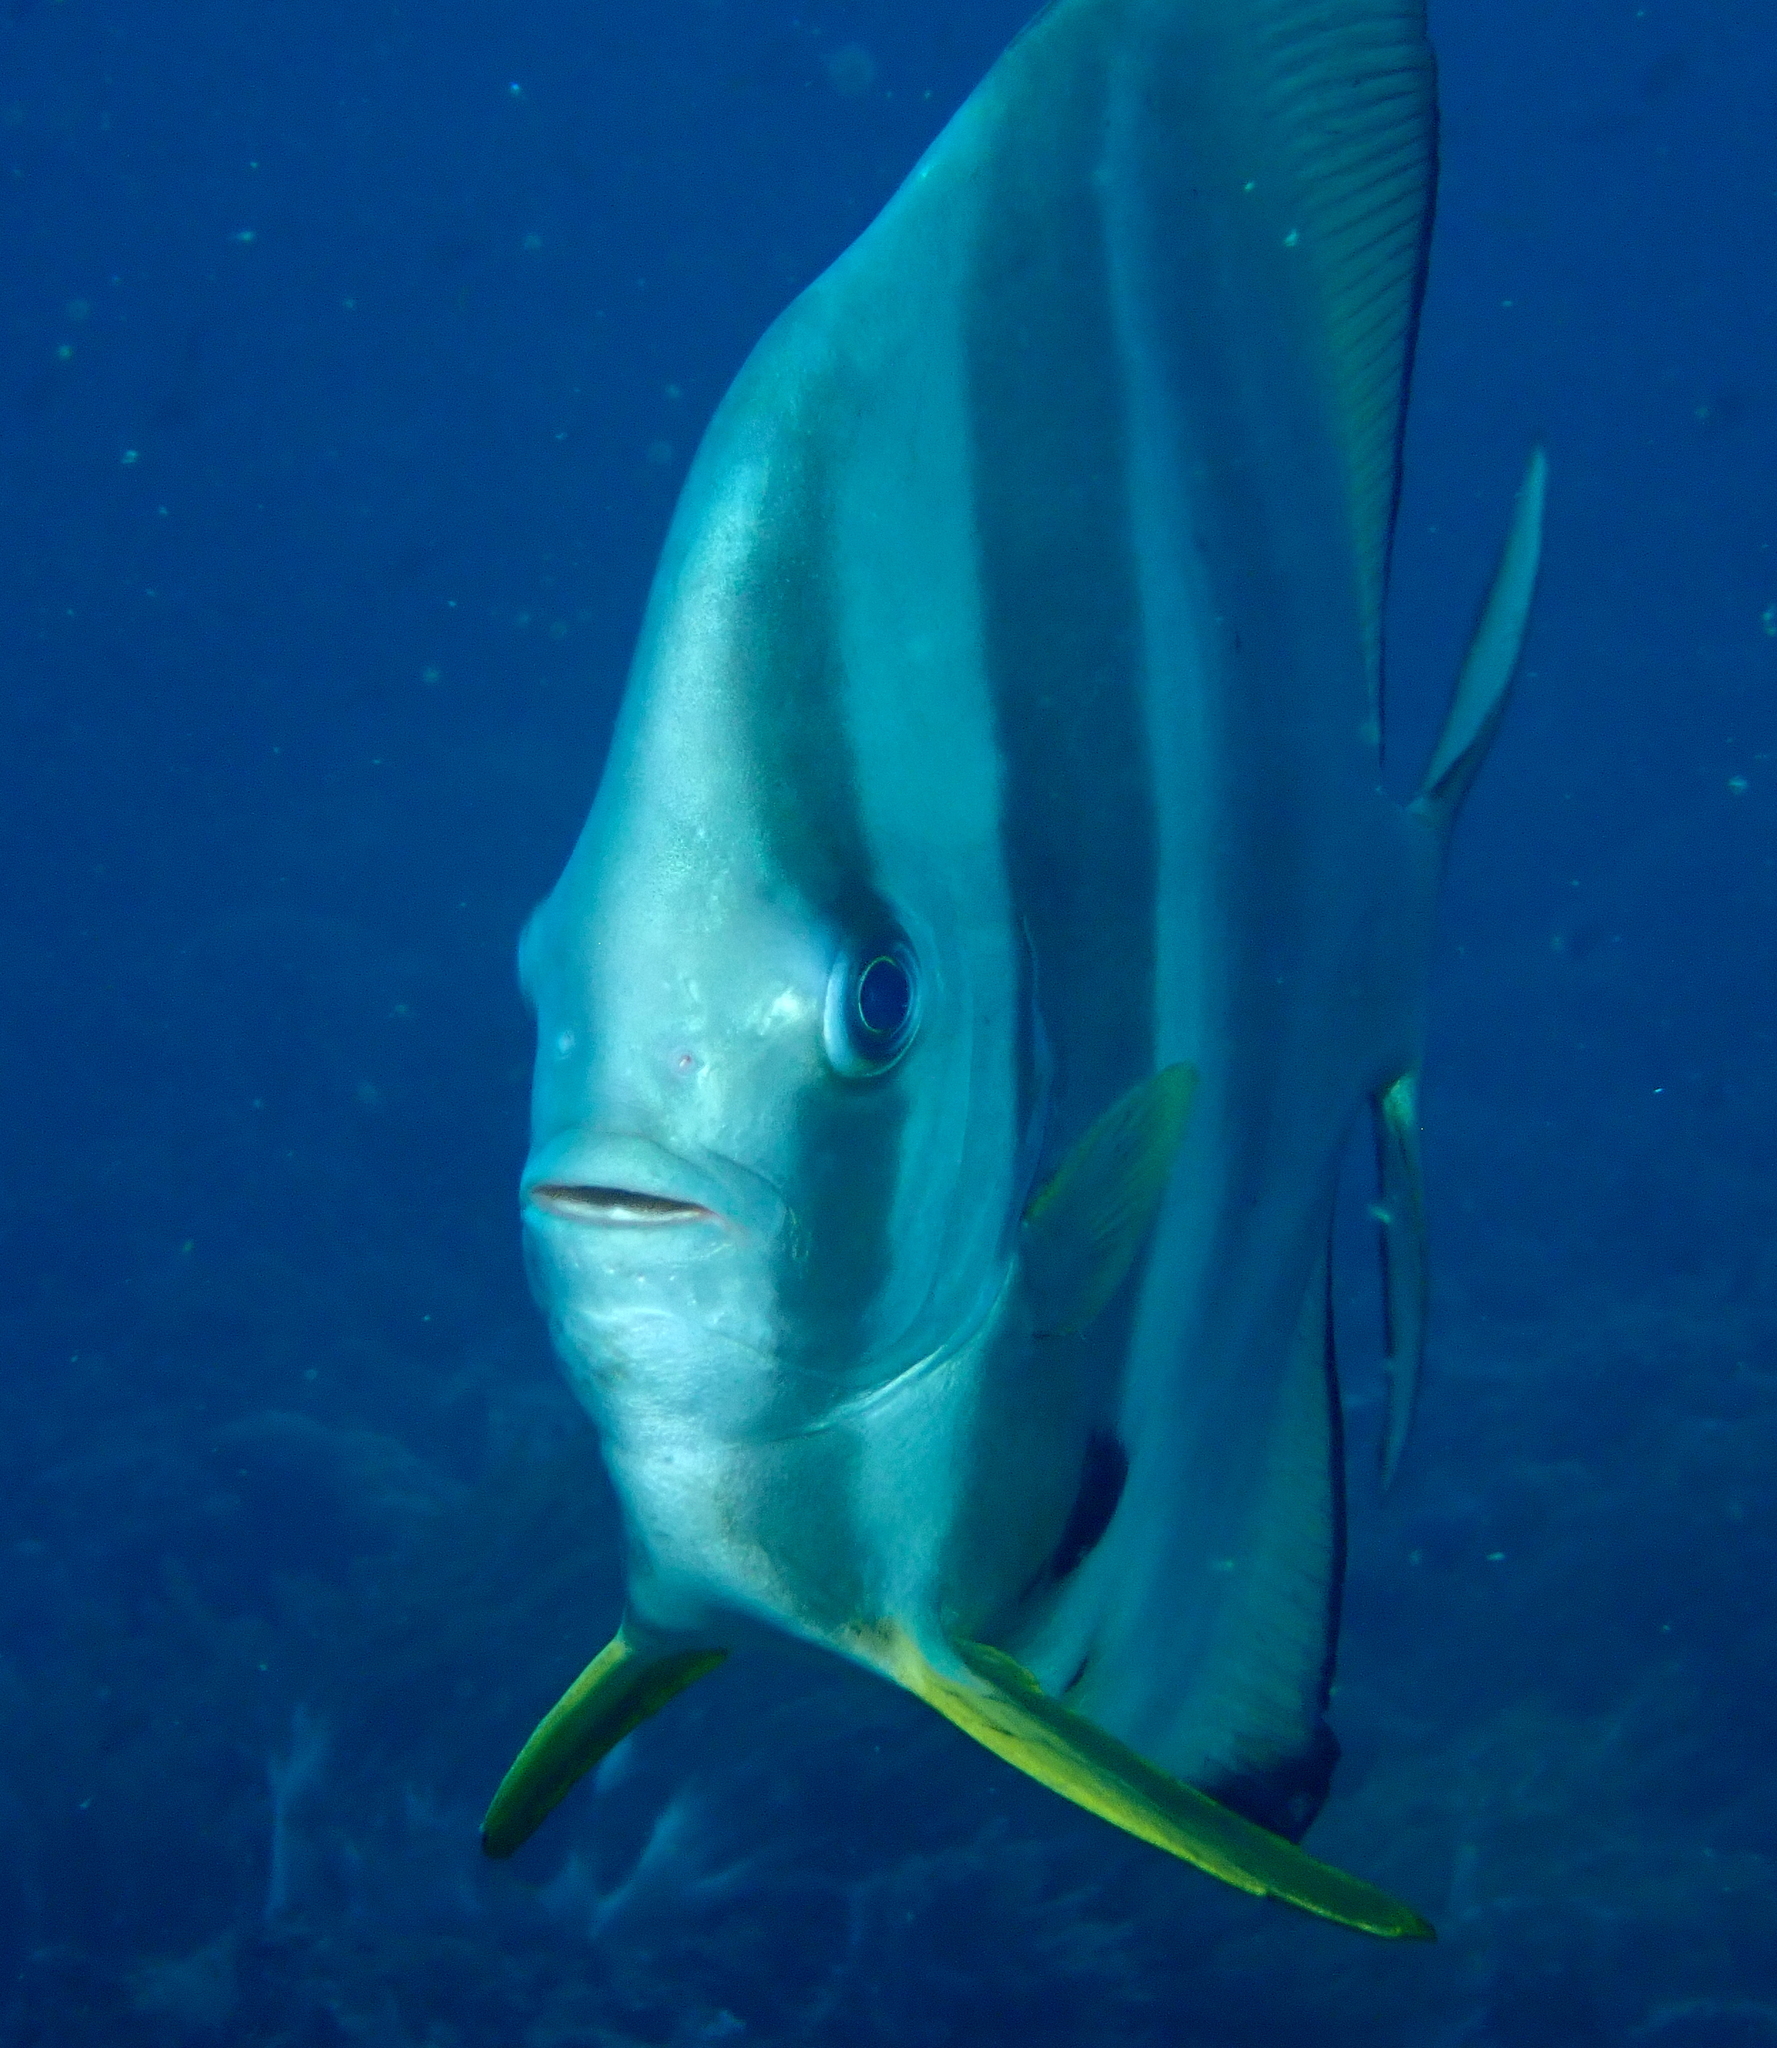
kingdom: Animalia
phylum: Chordata
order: Perciformes
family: Ephippidae
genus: Platax
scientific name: Platax teira
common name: Longfin baitfish
